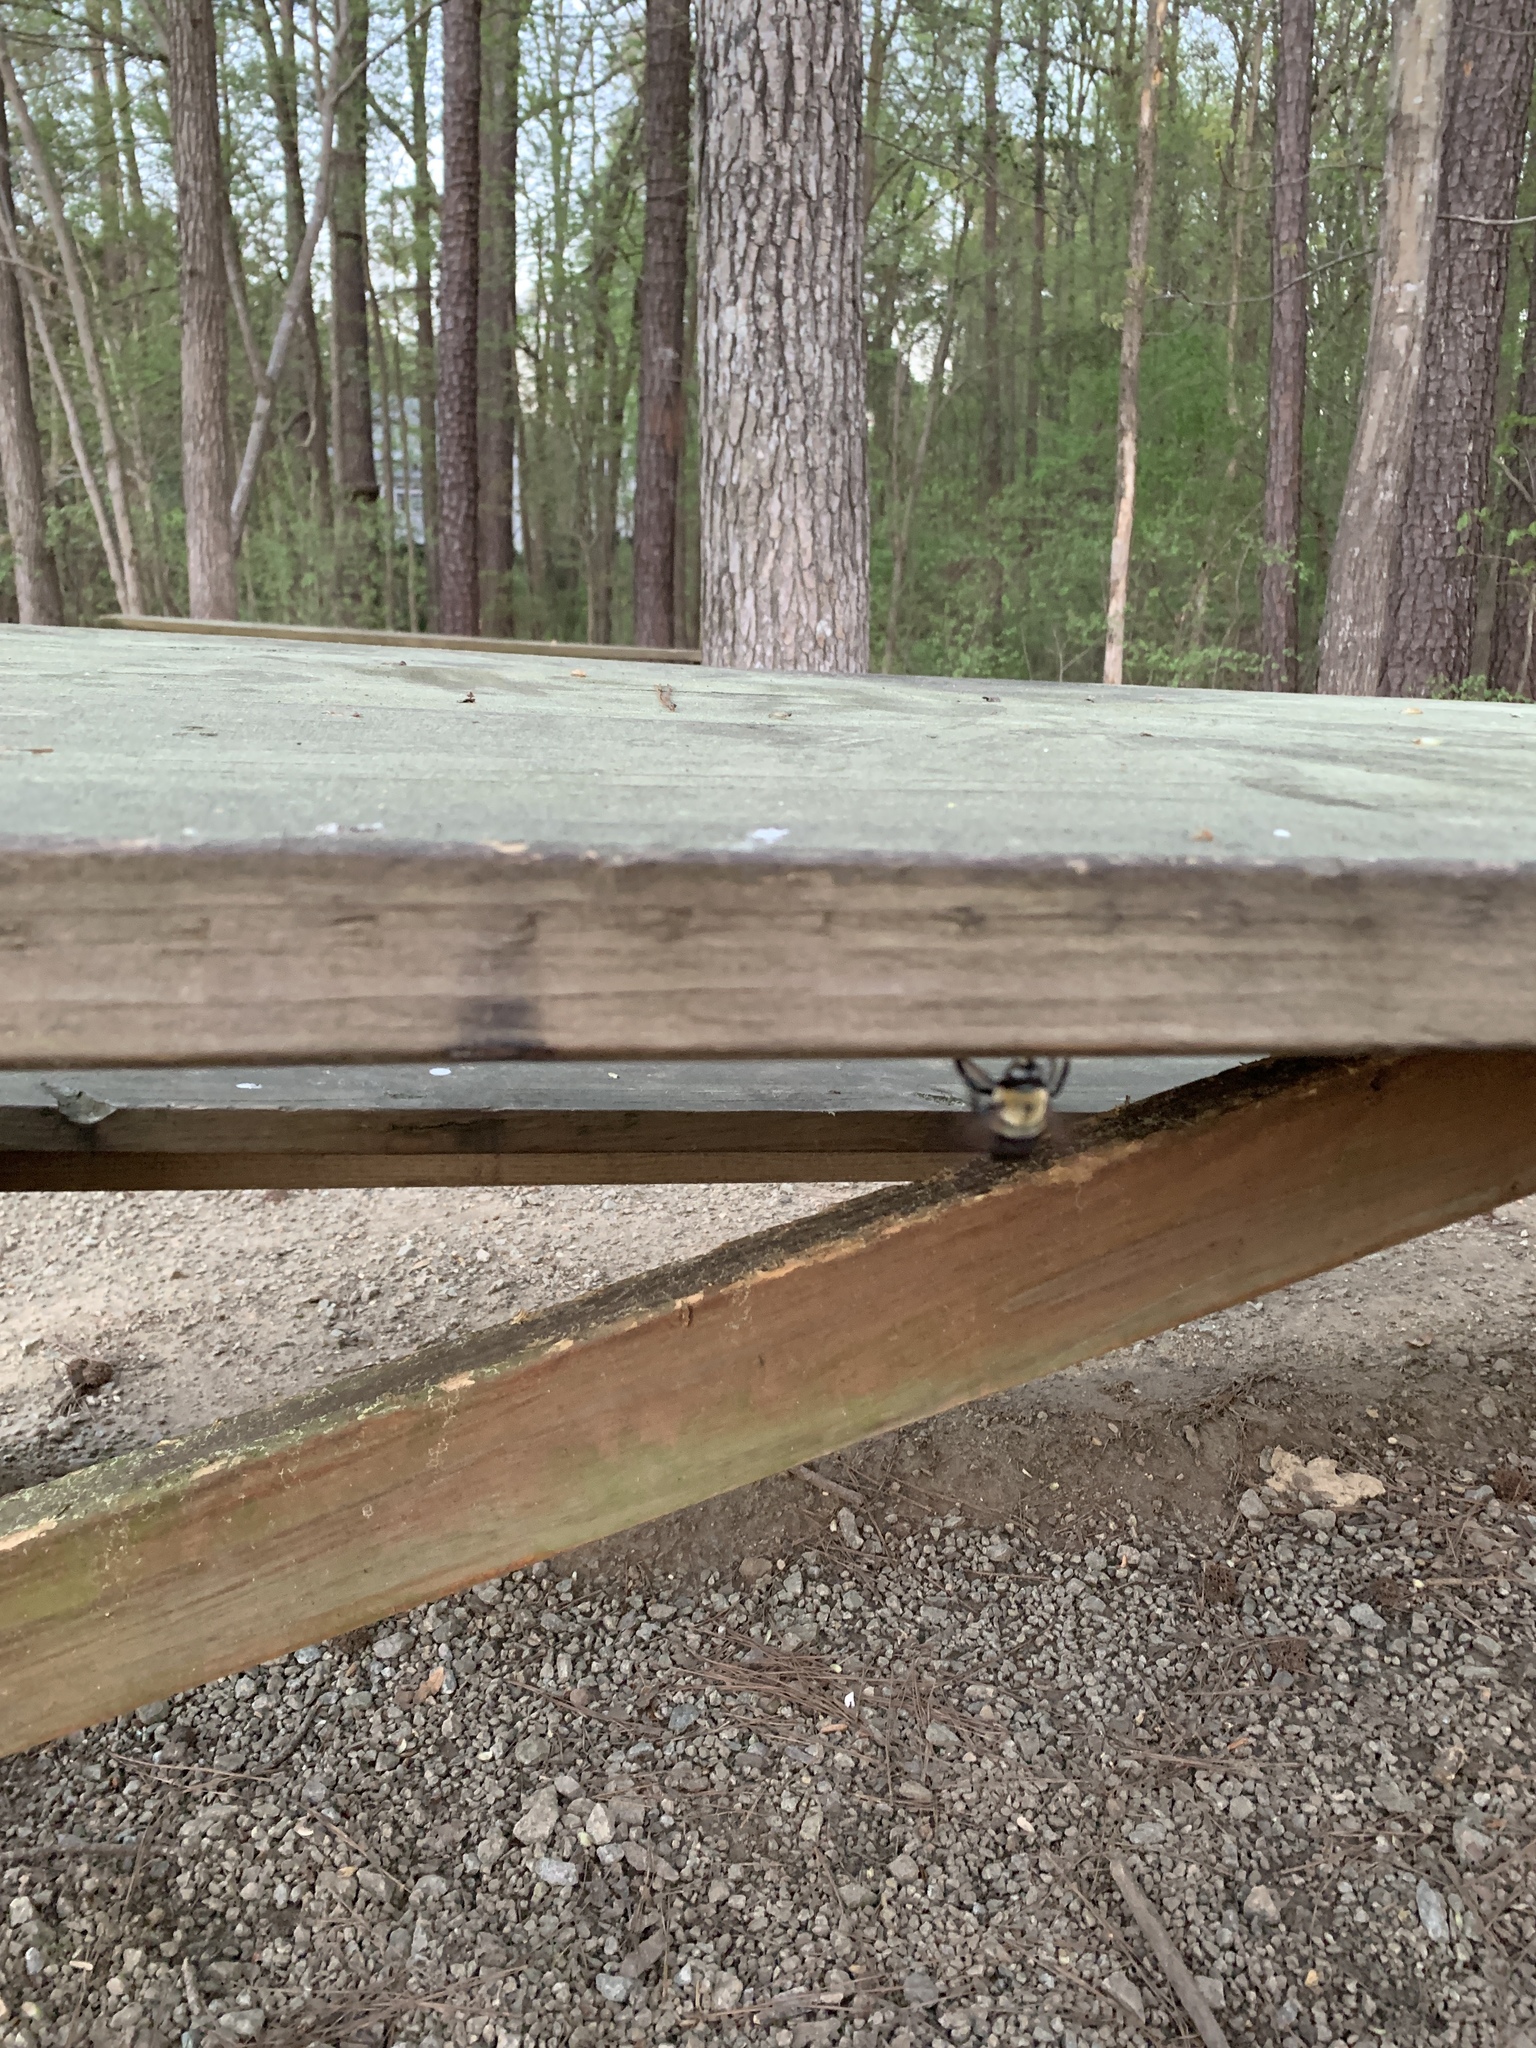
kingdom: Animalia
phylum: Arthropoda
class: Insecta
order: Hymenoptera
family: Apidae
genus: Xylocopa
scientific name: Xylocopa virginica
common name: Carpenter bee
